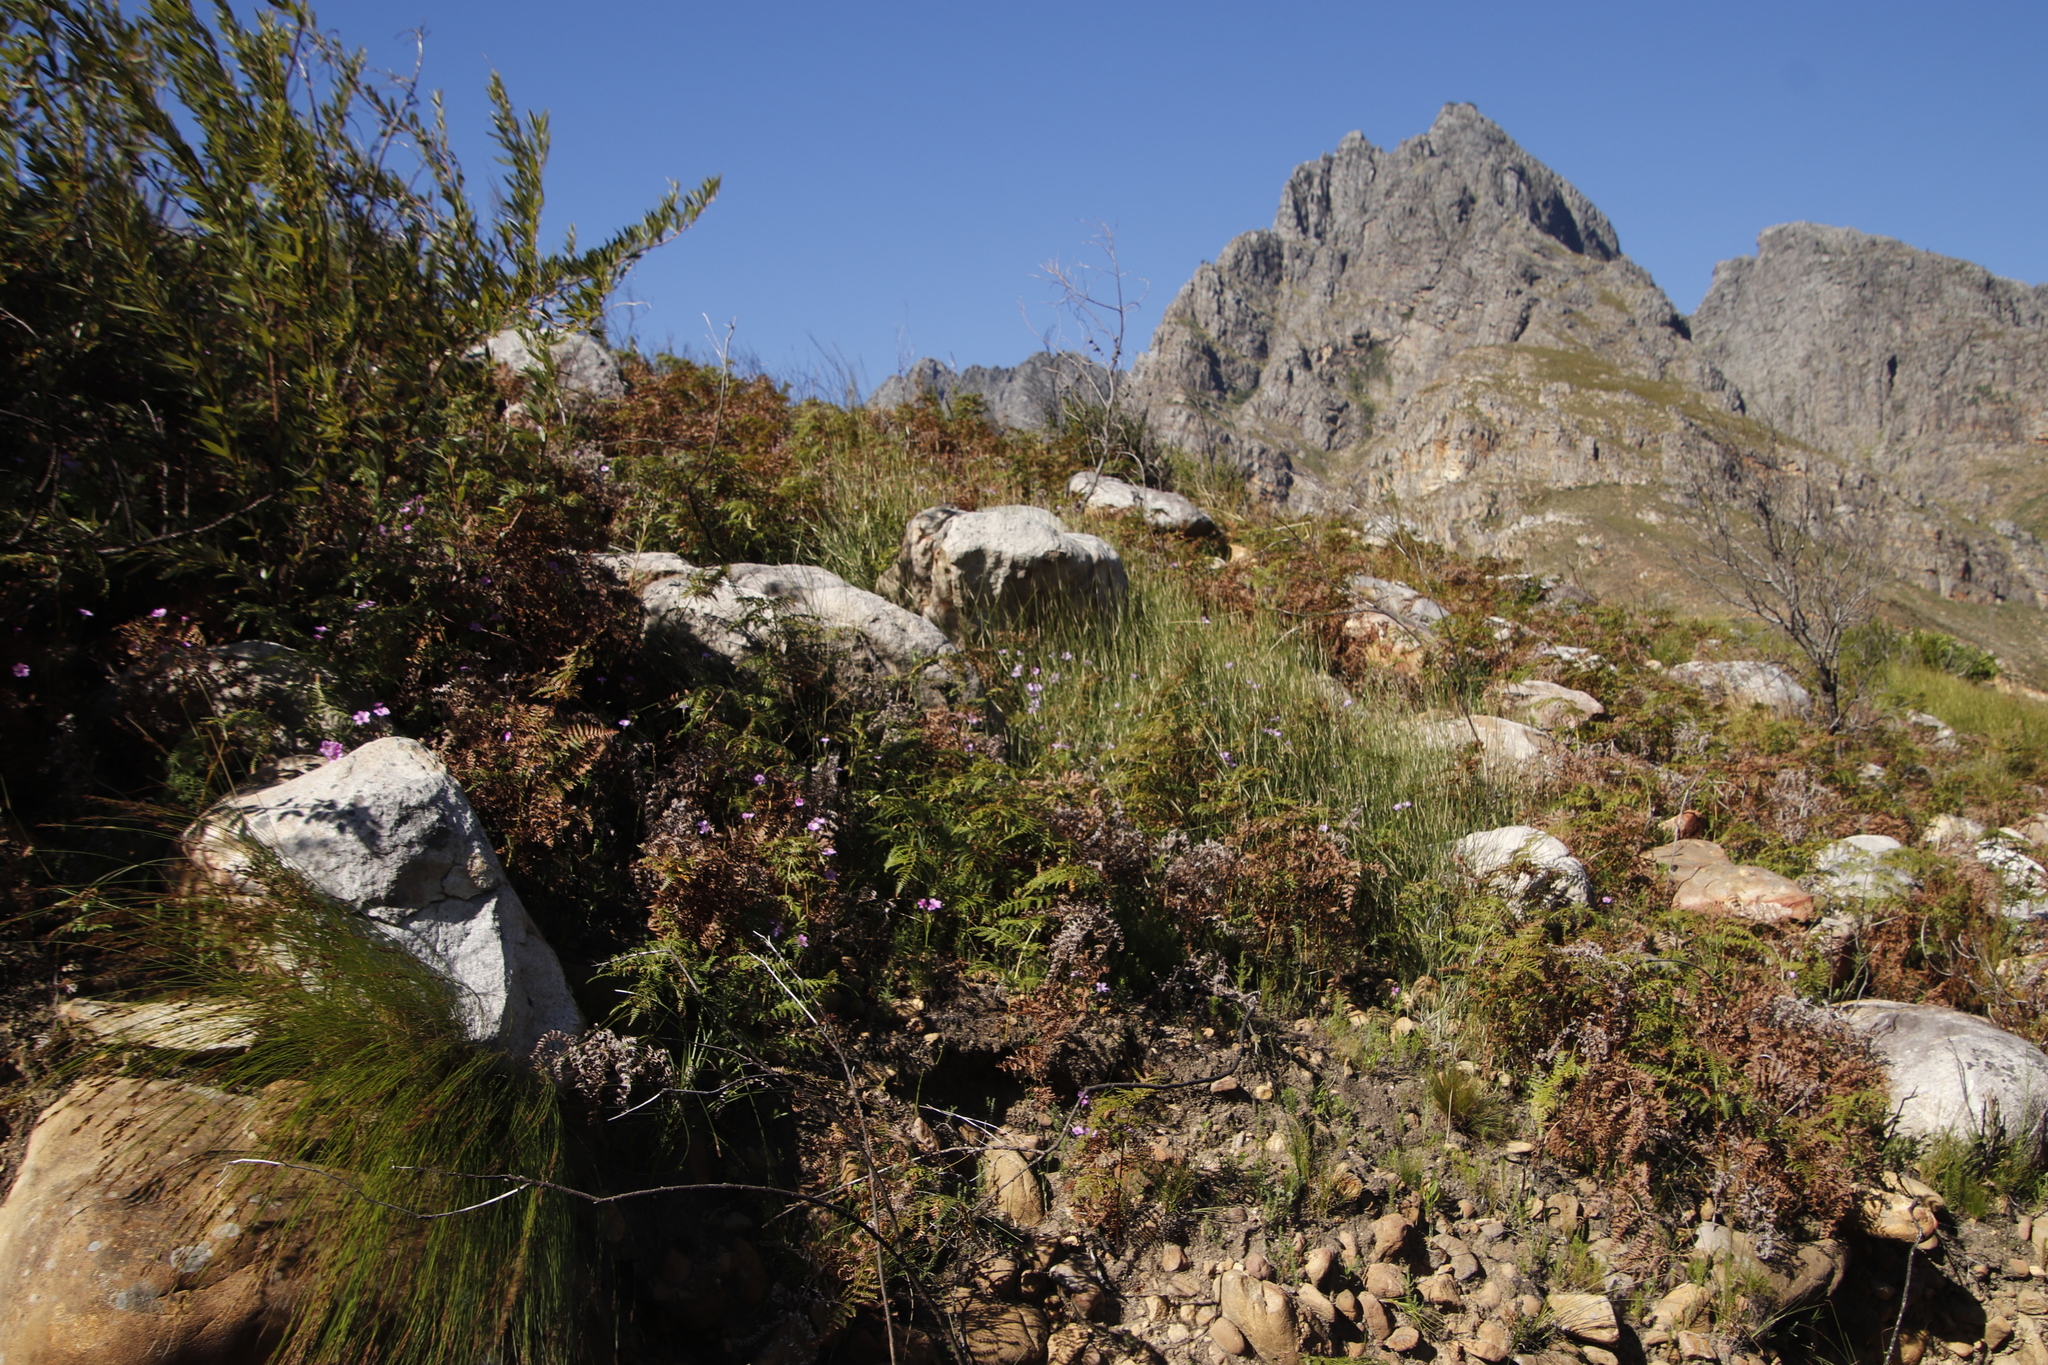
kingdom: Plantae
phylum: Tracheophyta
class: Magnoliopsida
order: Oxalidales
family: Oxalidaceae
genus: Oxalis
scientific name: Oxalis bifida
